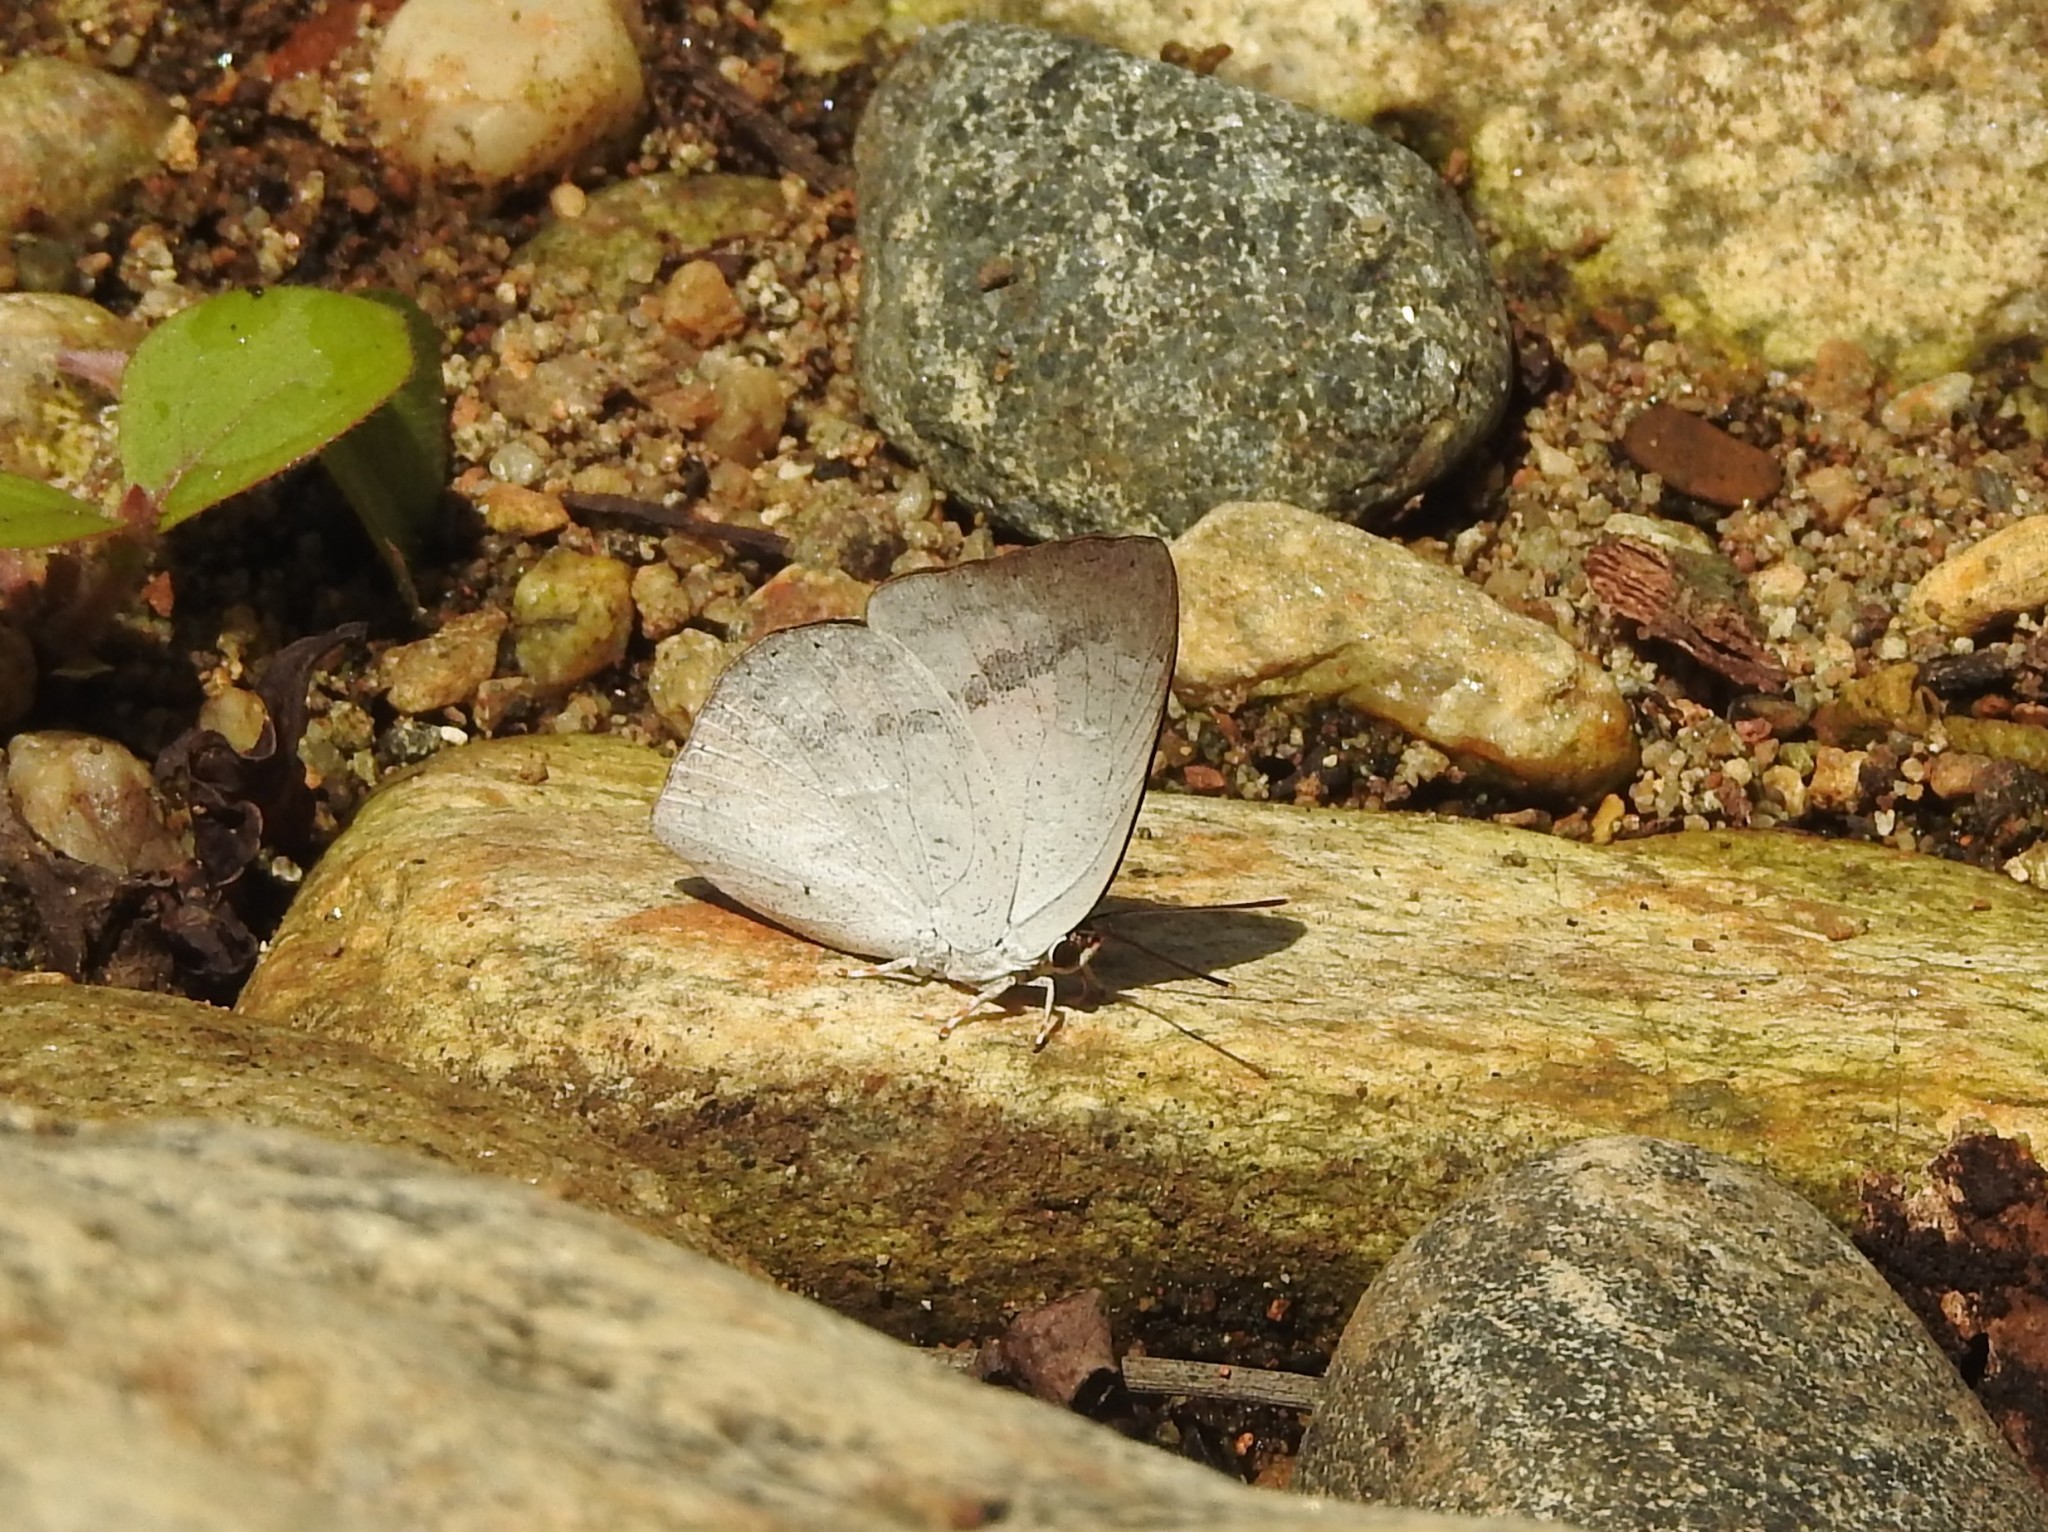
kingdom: Animalia
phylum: Arthropoda
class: Insecta
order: Lepidoptera
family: Lycaenidae
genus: Curetis
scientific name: Curetis siva
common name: Shiva sunbeam
